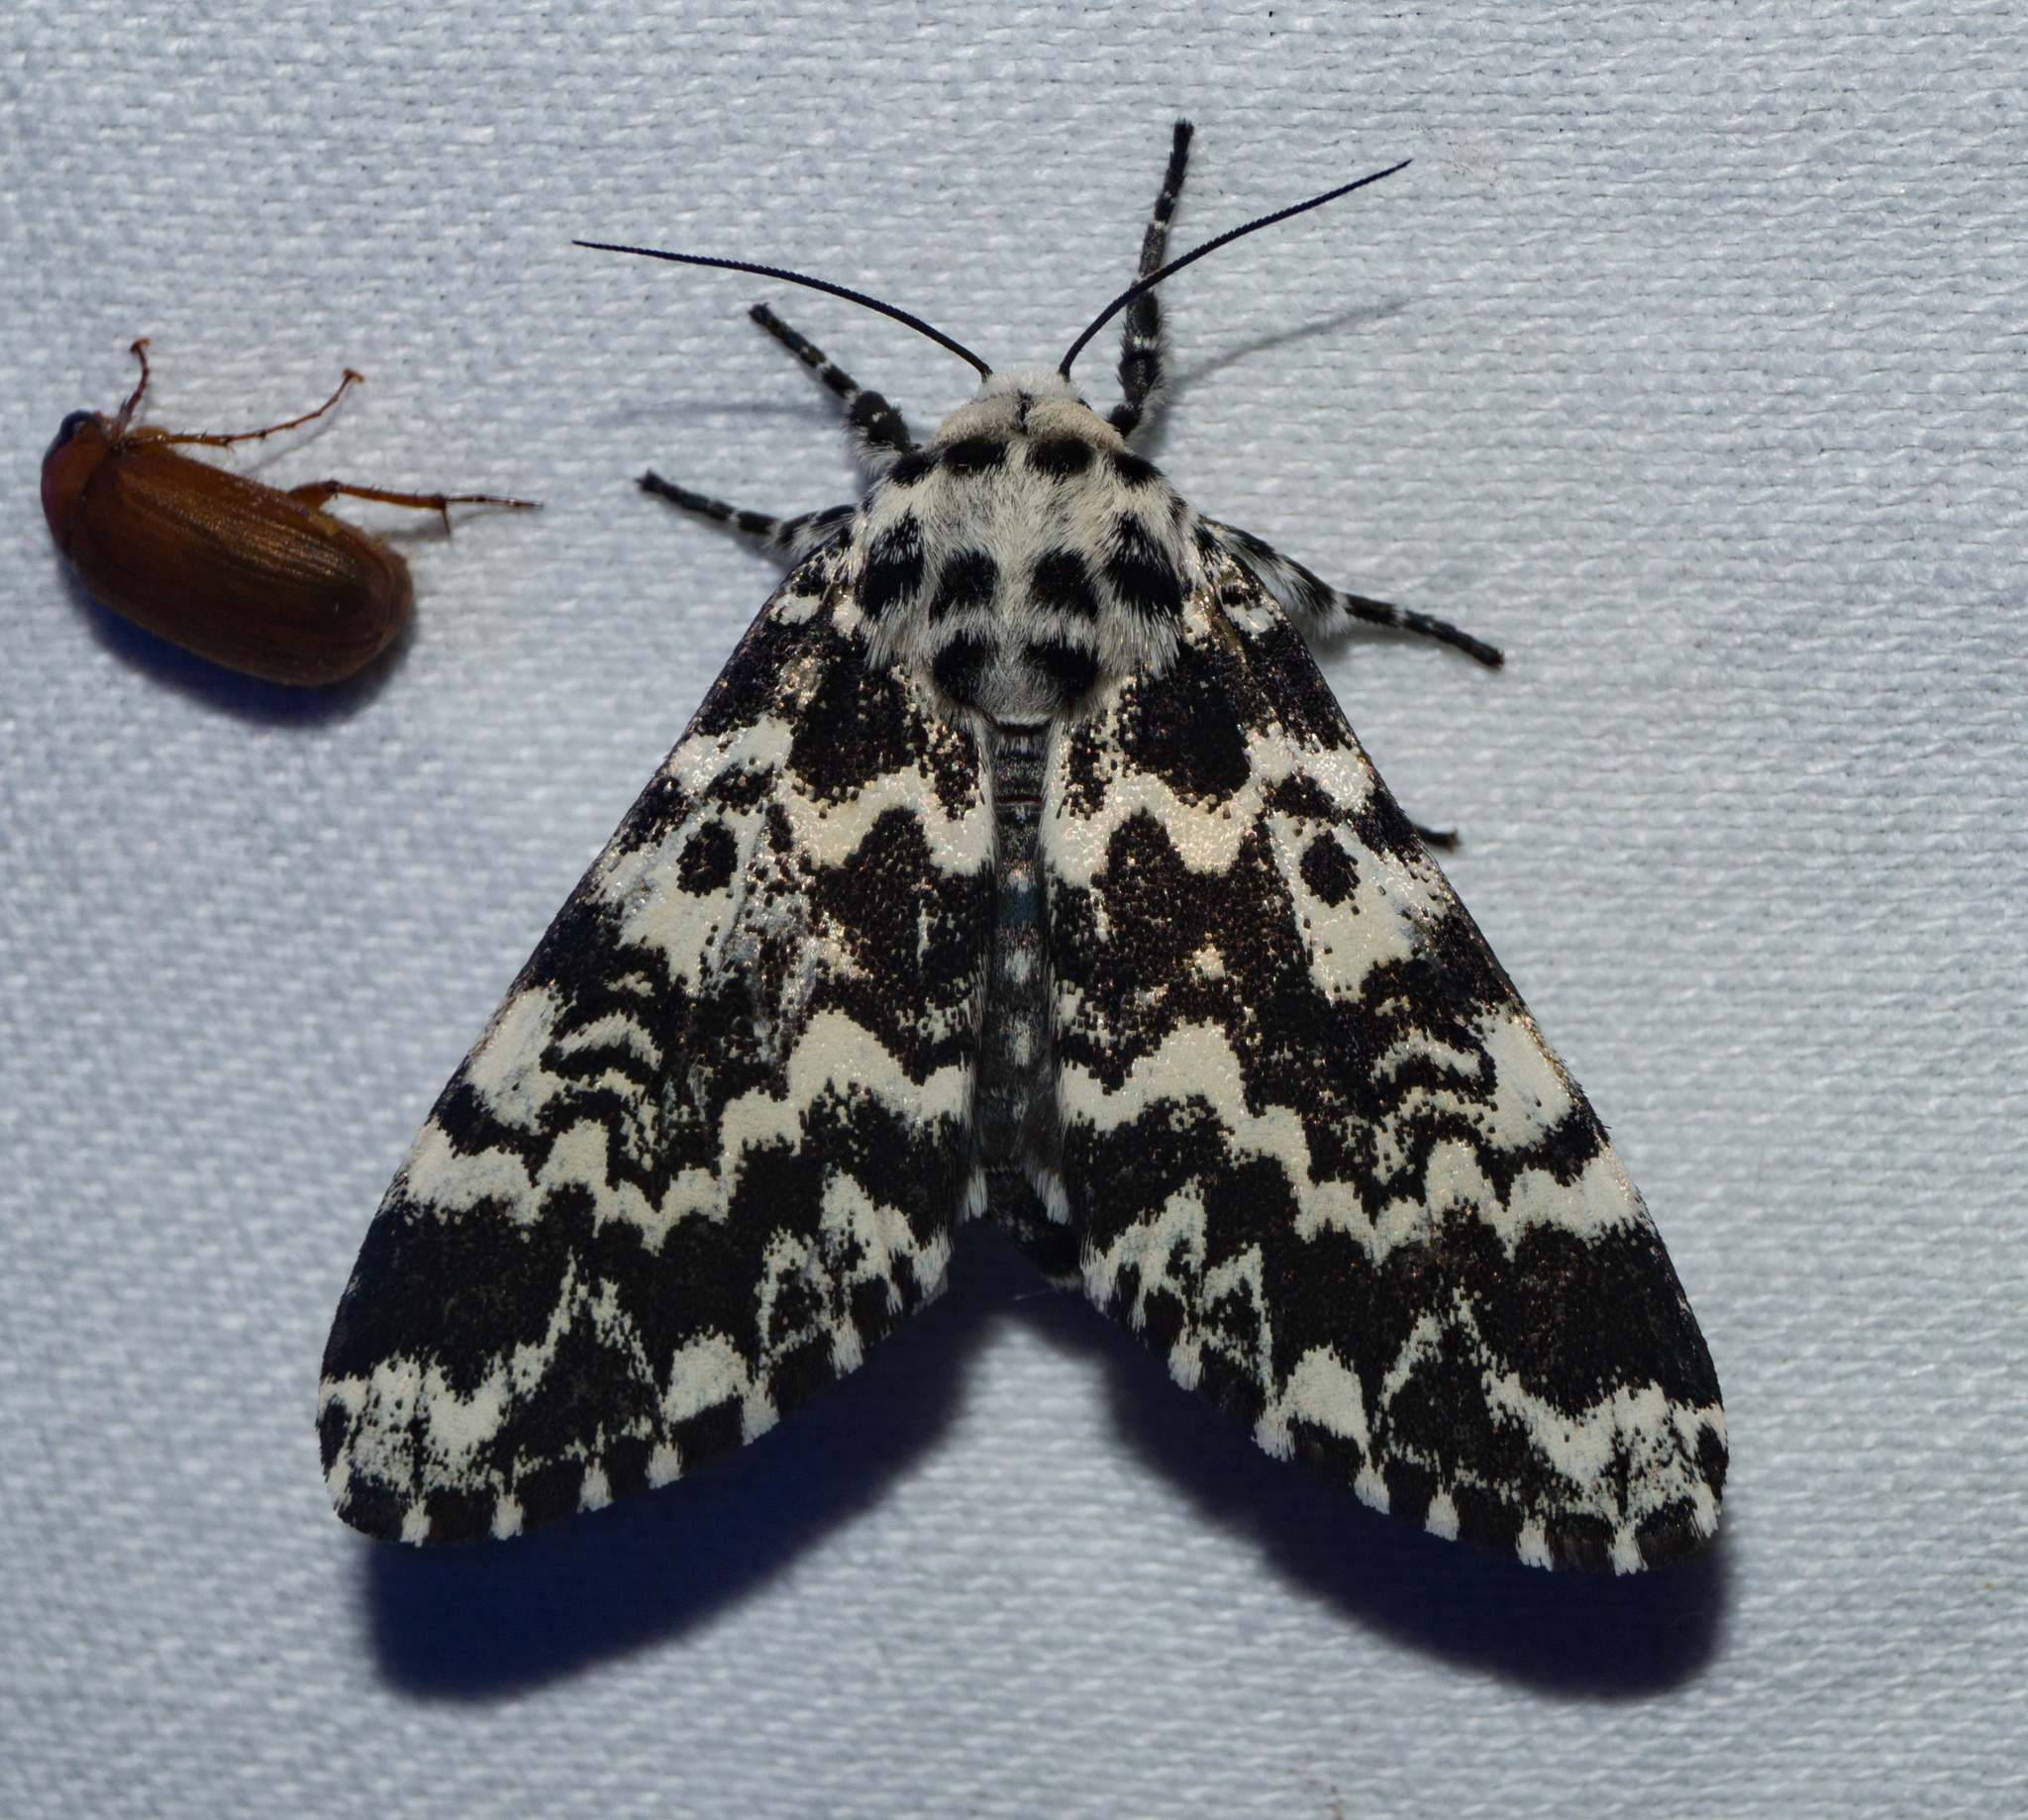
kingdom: Animalia
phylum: Arthropoda
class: Insecta
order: Lepidoptera
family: Noctuidae
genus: Panthea
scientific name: Panthea coenobita
